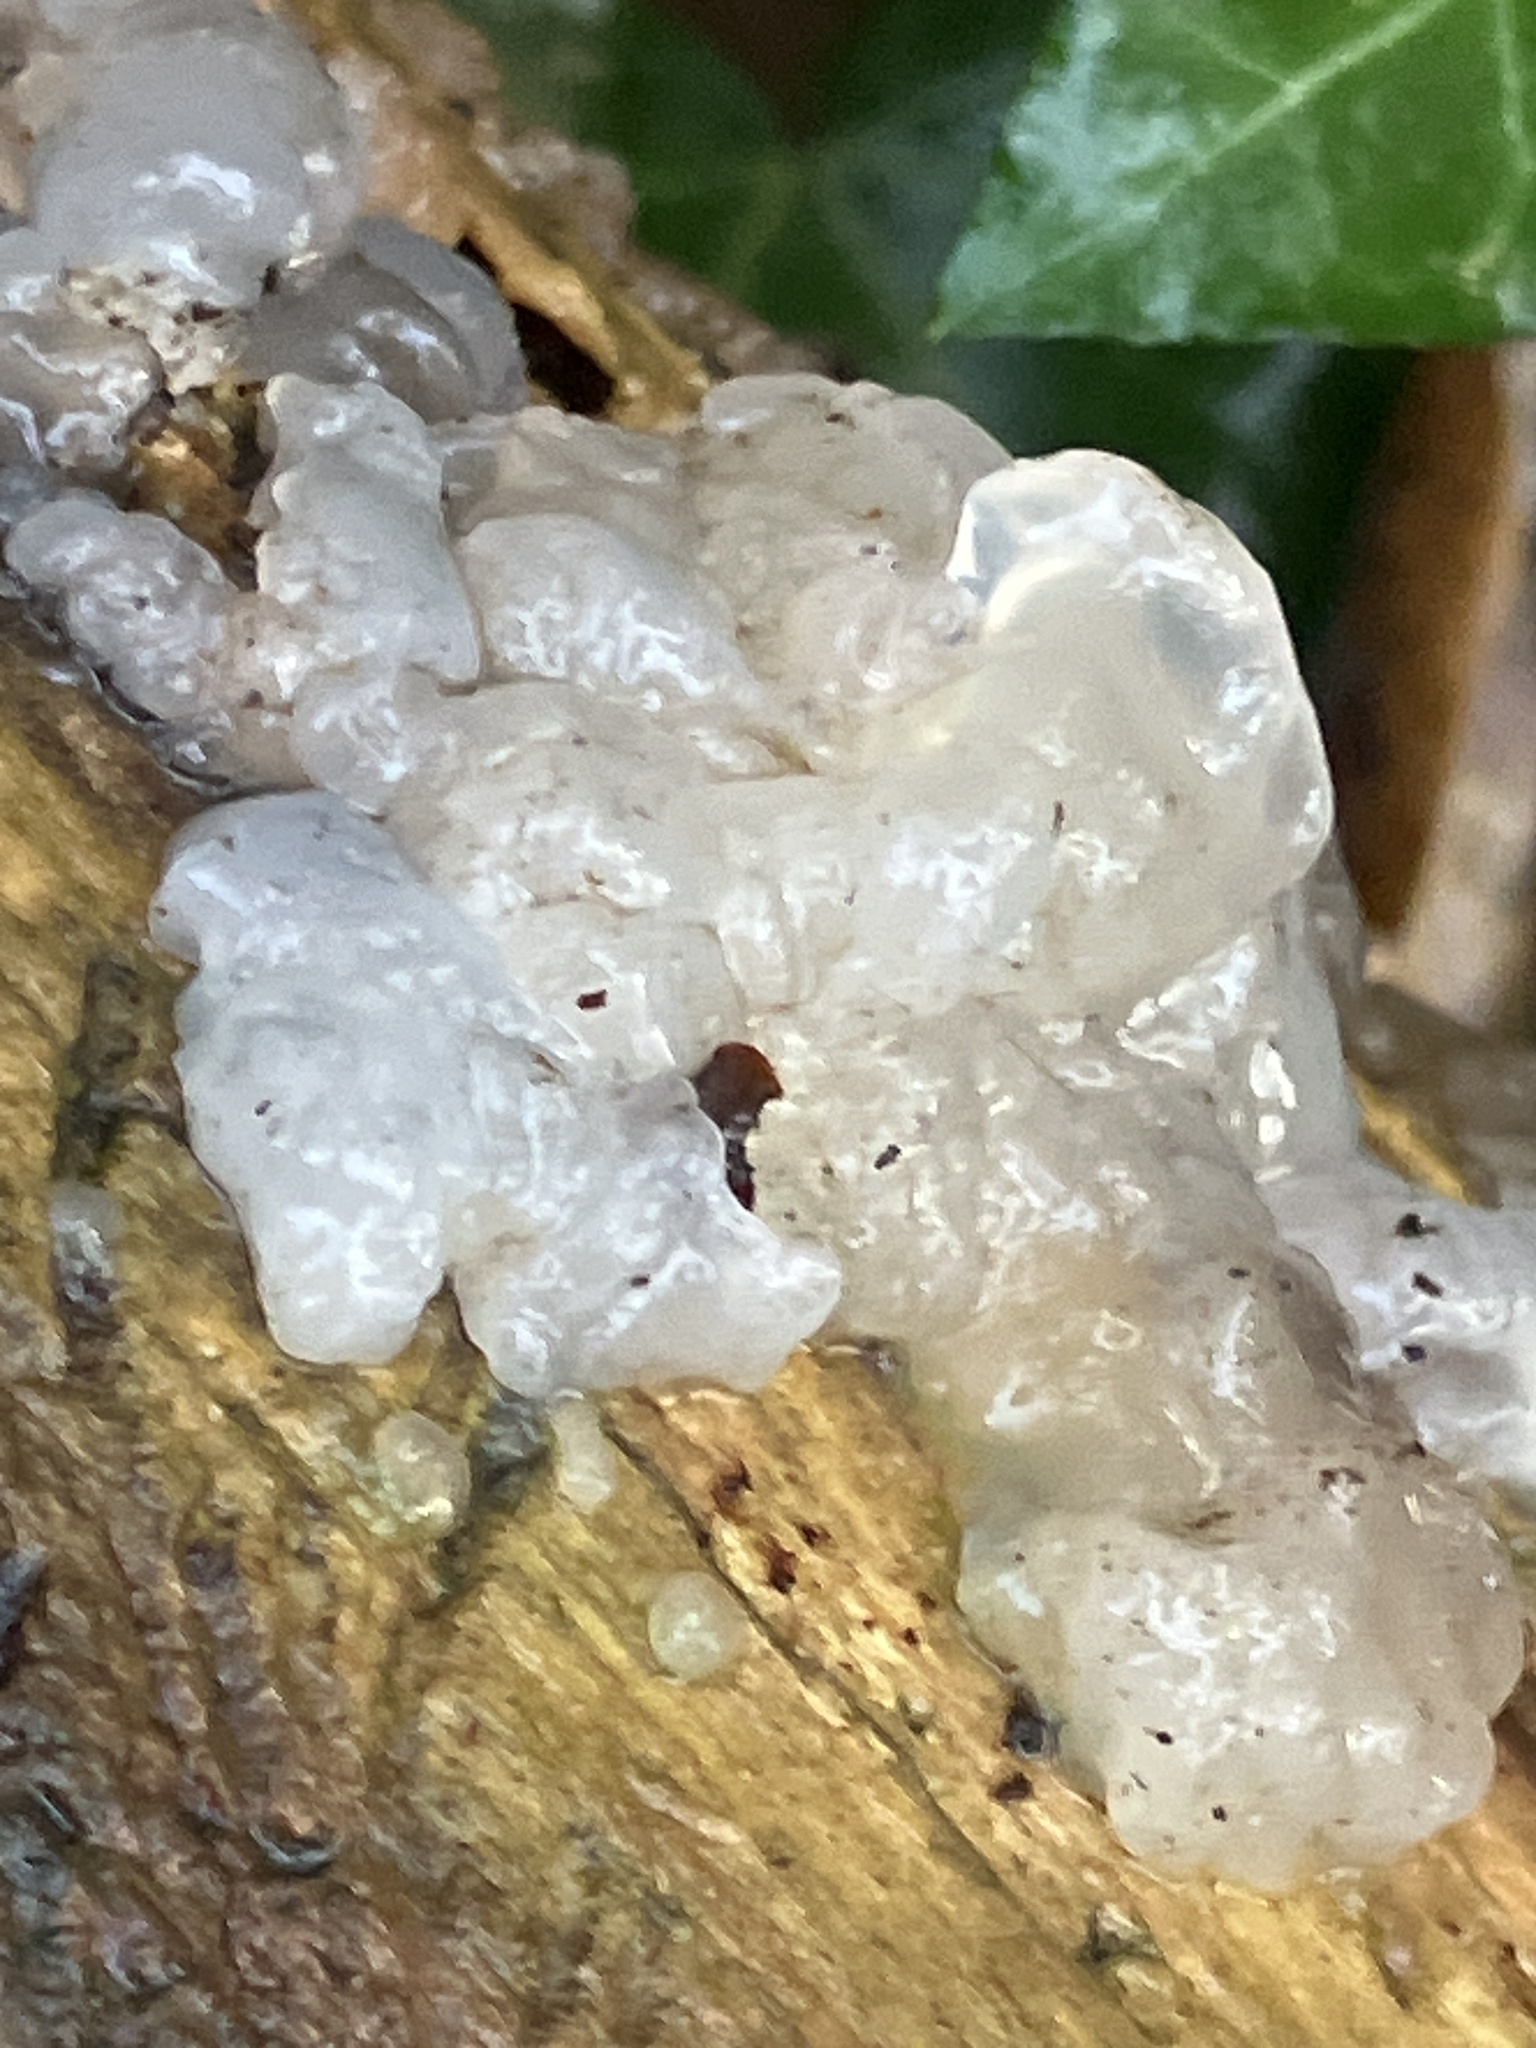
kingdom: Fungi
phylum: Basidiomycota
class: Agaricomycetes
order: Auriculariales
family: Hyaloriaceae
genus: Myxarium
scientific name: Myxarium nucleatum
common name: Crystal brain fungus
